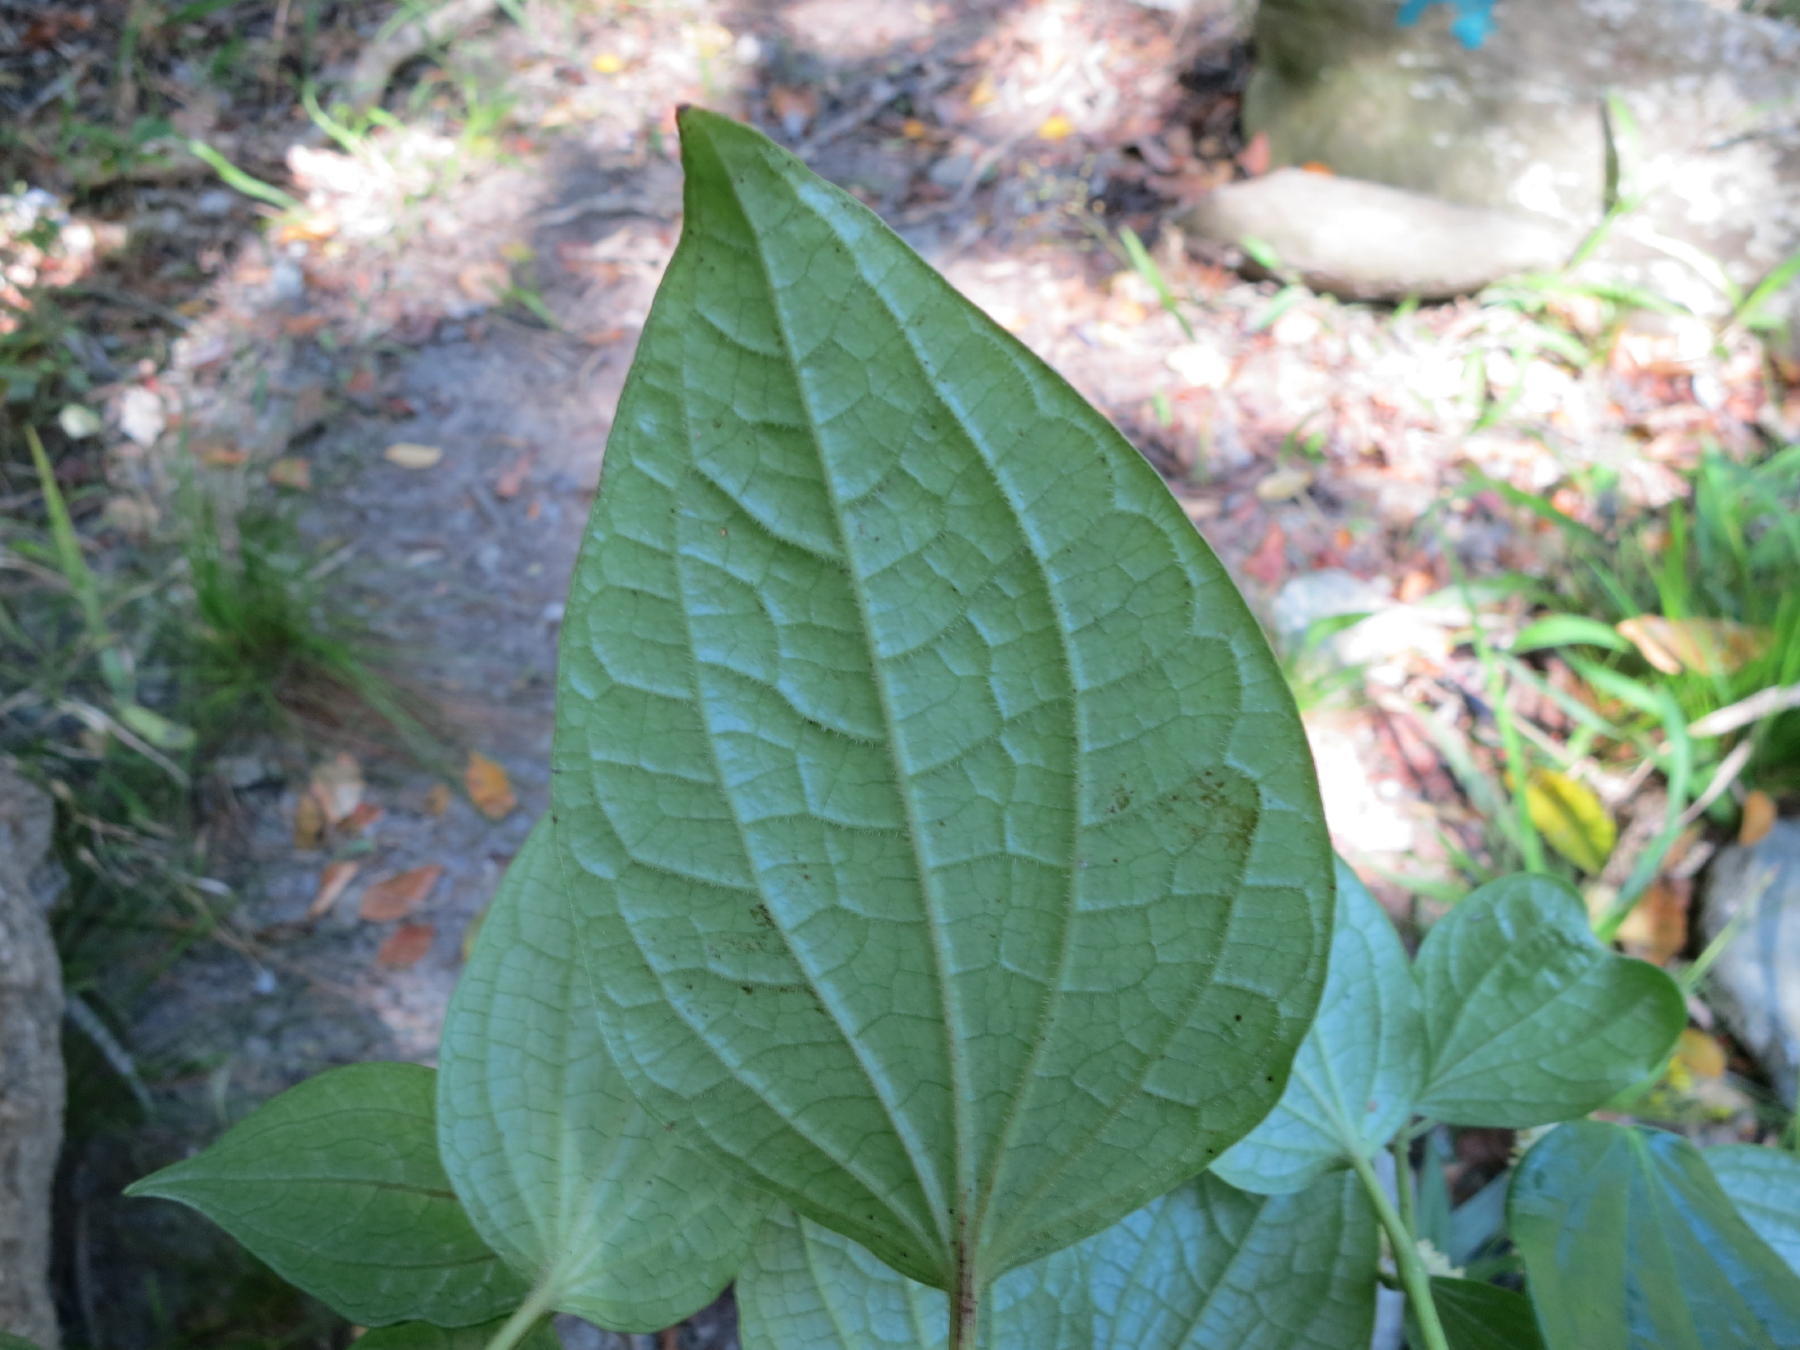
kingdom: Plantae
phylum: Tracheophyta
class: Magnoliopsida
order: Piperales
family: Piperaceae
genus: Piper
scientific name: Piper capense
